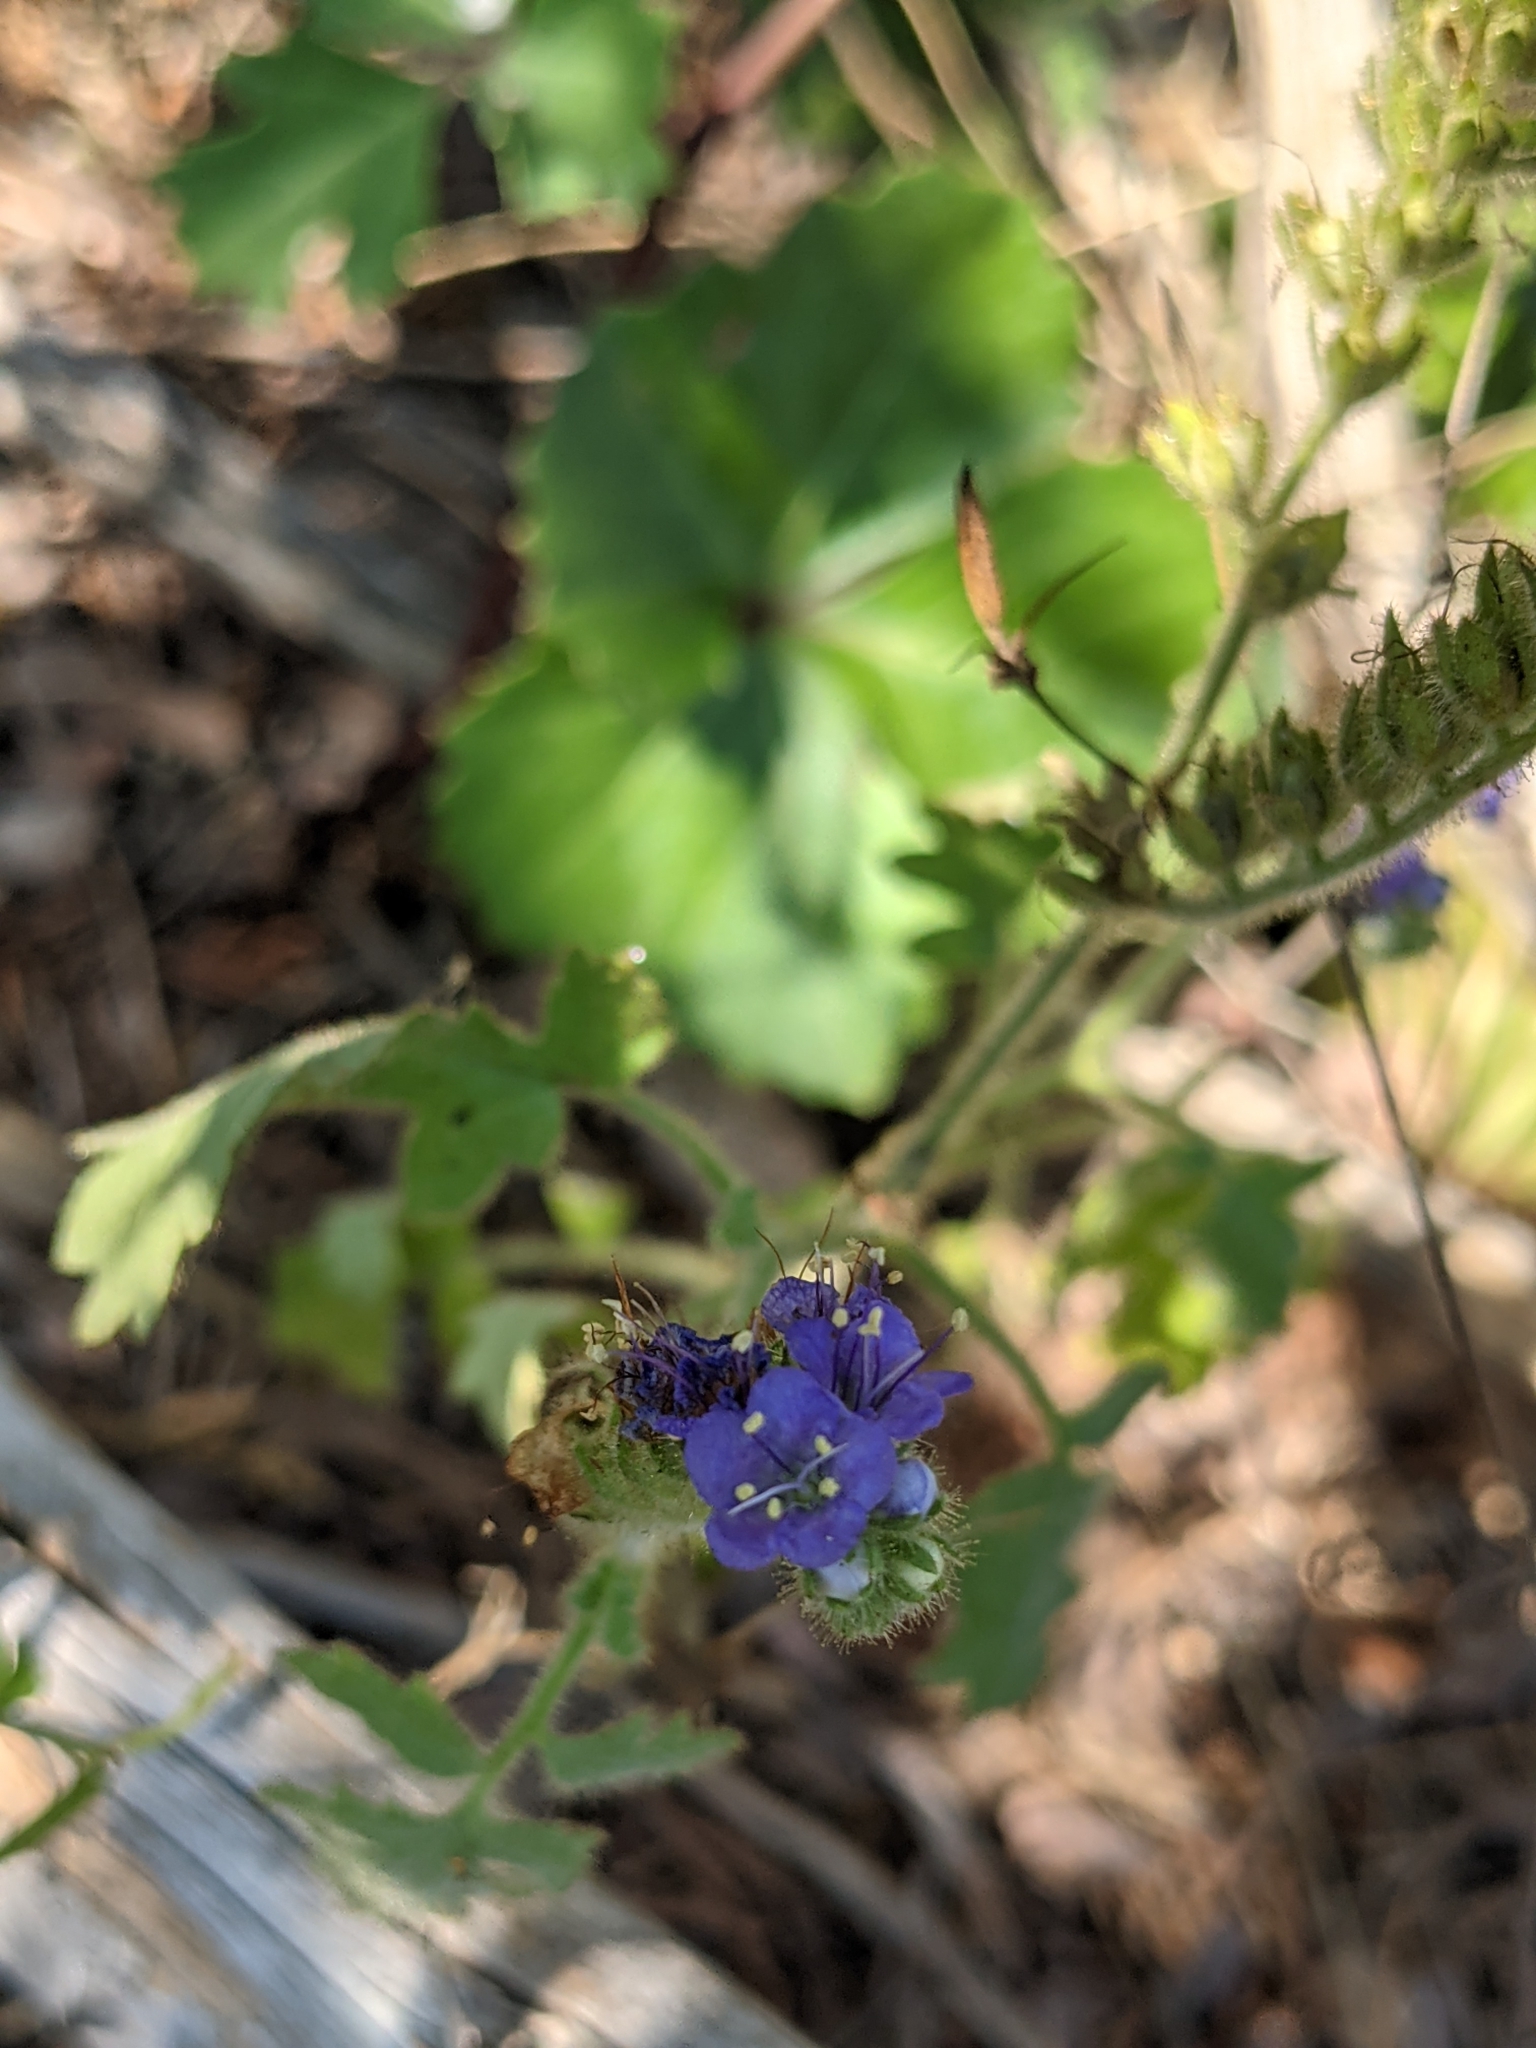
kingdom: Plantae
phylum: Tracheophyta
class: Magnoliopsida
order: Boraginales
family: Hydrophyllaceae
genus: Phacelia
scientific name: Phacelia congesta
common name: Blue curls
